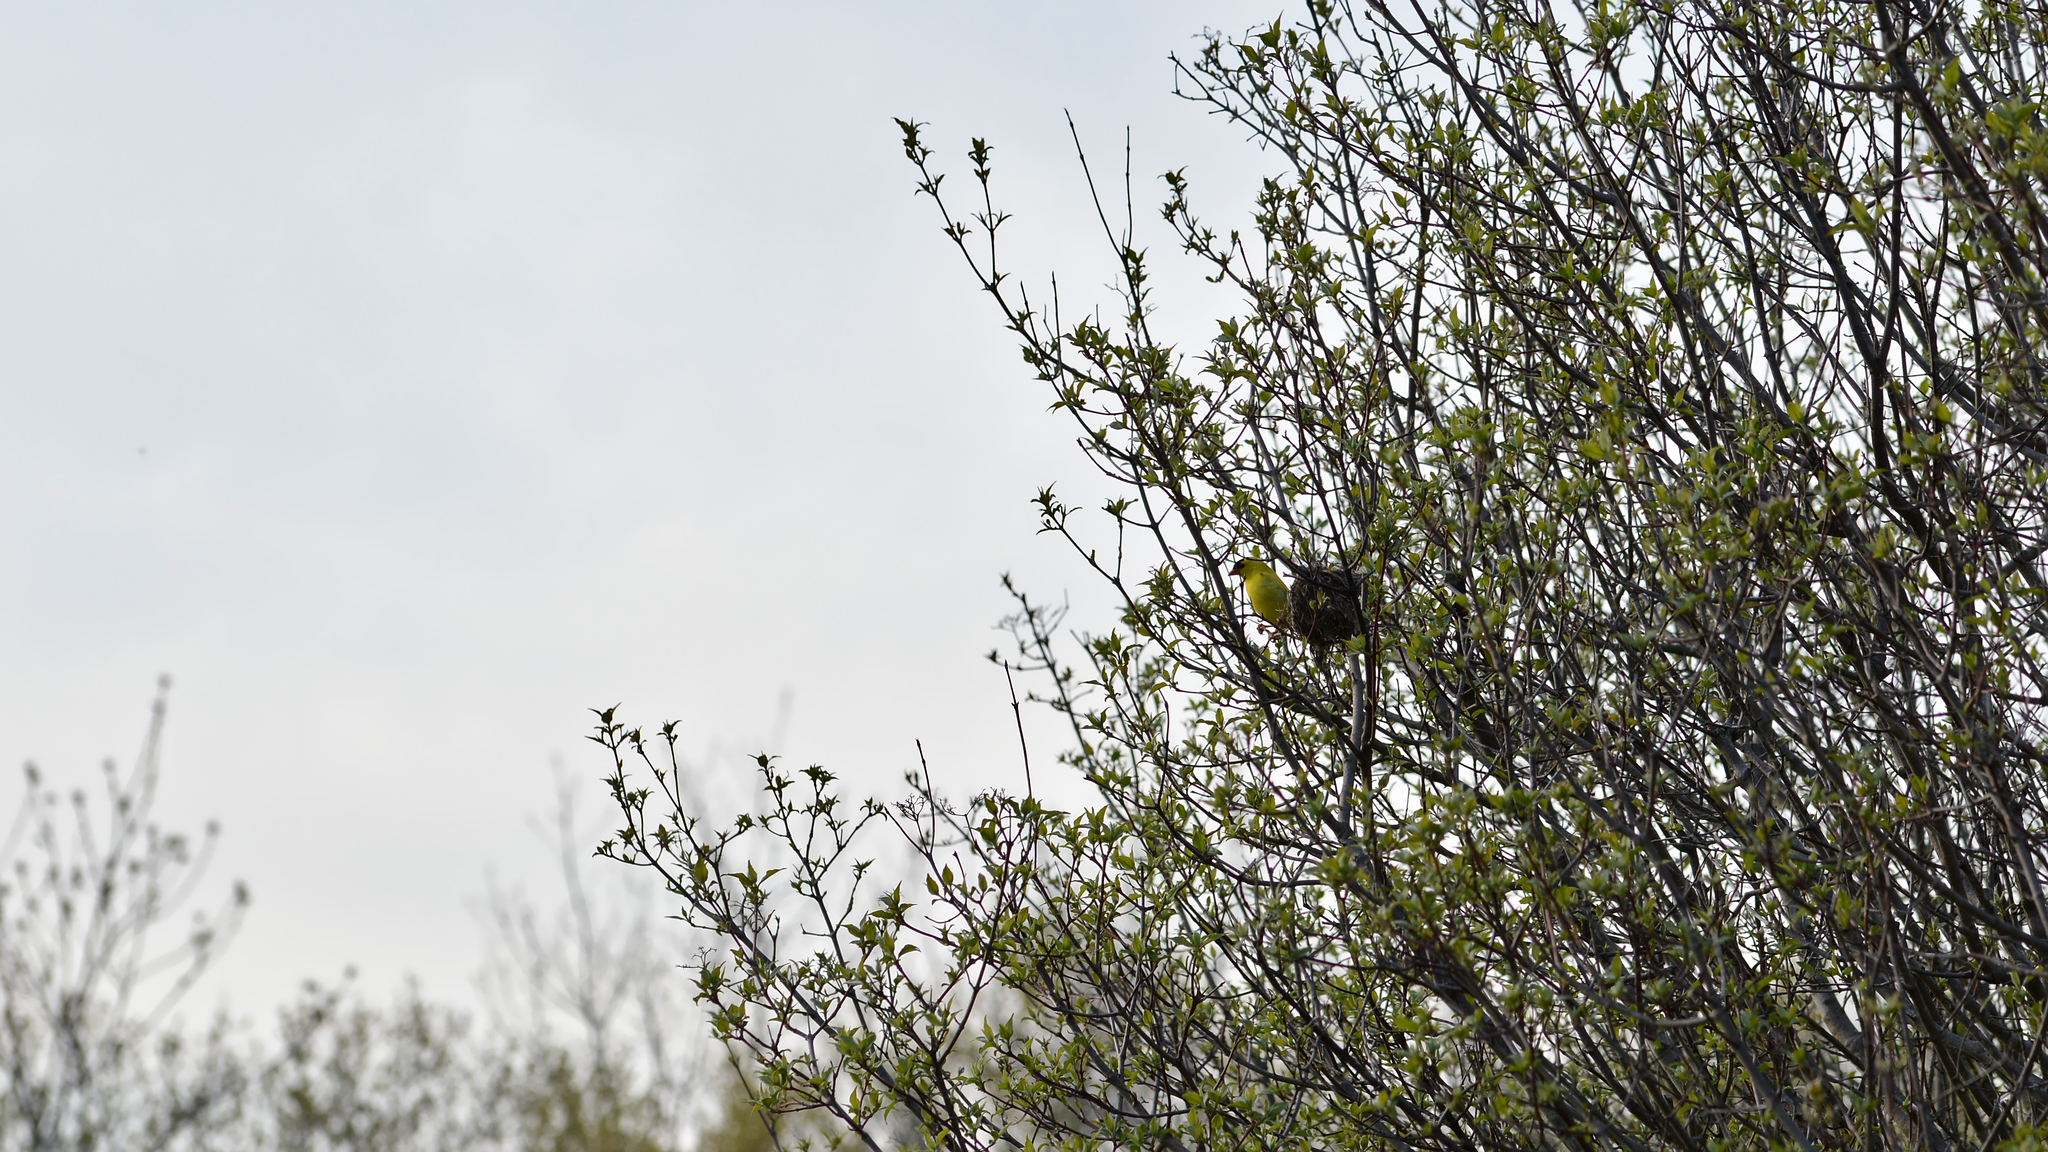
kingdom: Animalia
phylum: Chordata
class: Aves
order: Passeriformes
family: Fringillidae
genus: Spinus
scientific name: Spinus tristis
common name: American goldfinch
